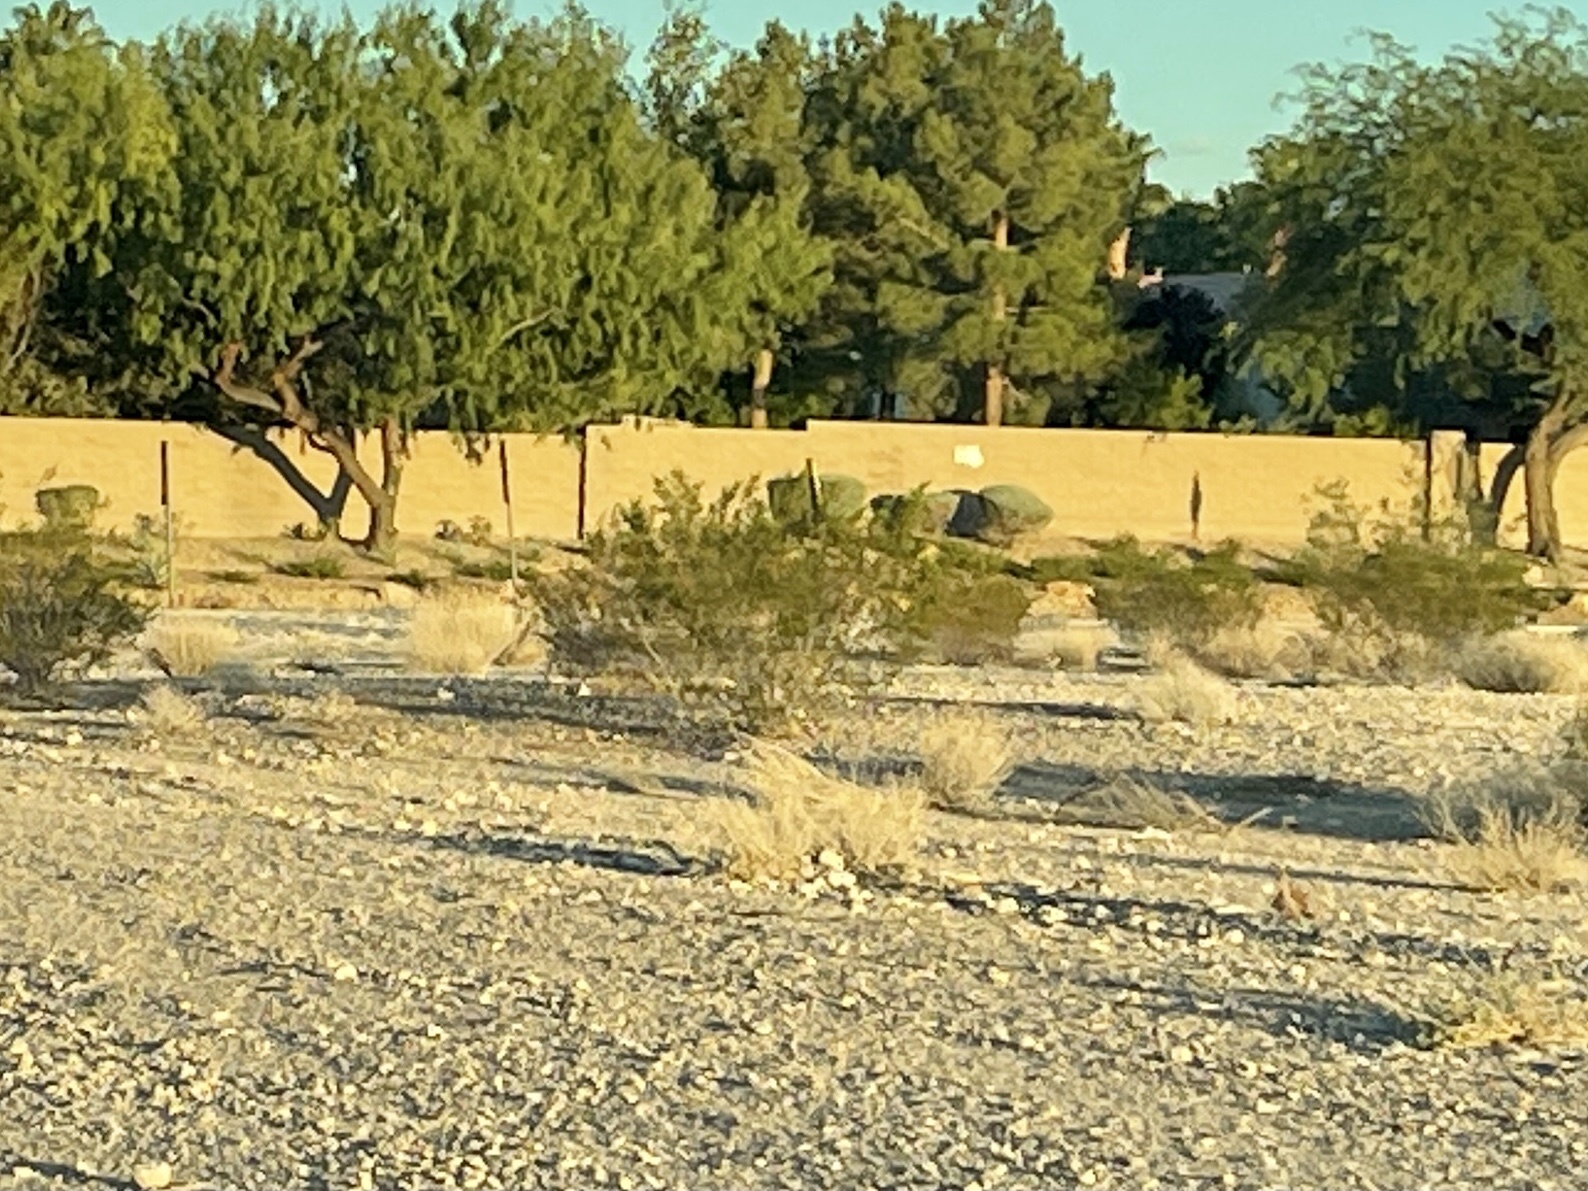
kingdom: Plantae
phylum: Tracheophyta
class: Magnoliopsida
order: Zygophyllales
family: Zygophyllaceae
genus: Larrea
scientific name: Larrea tridentata
